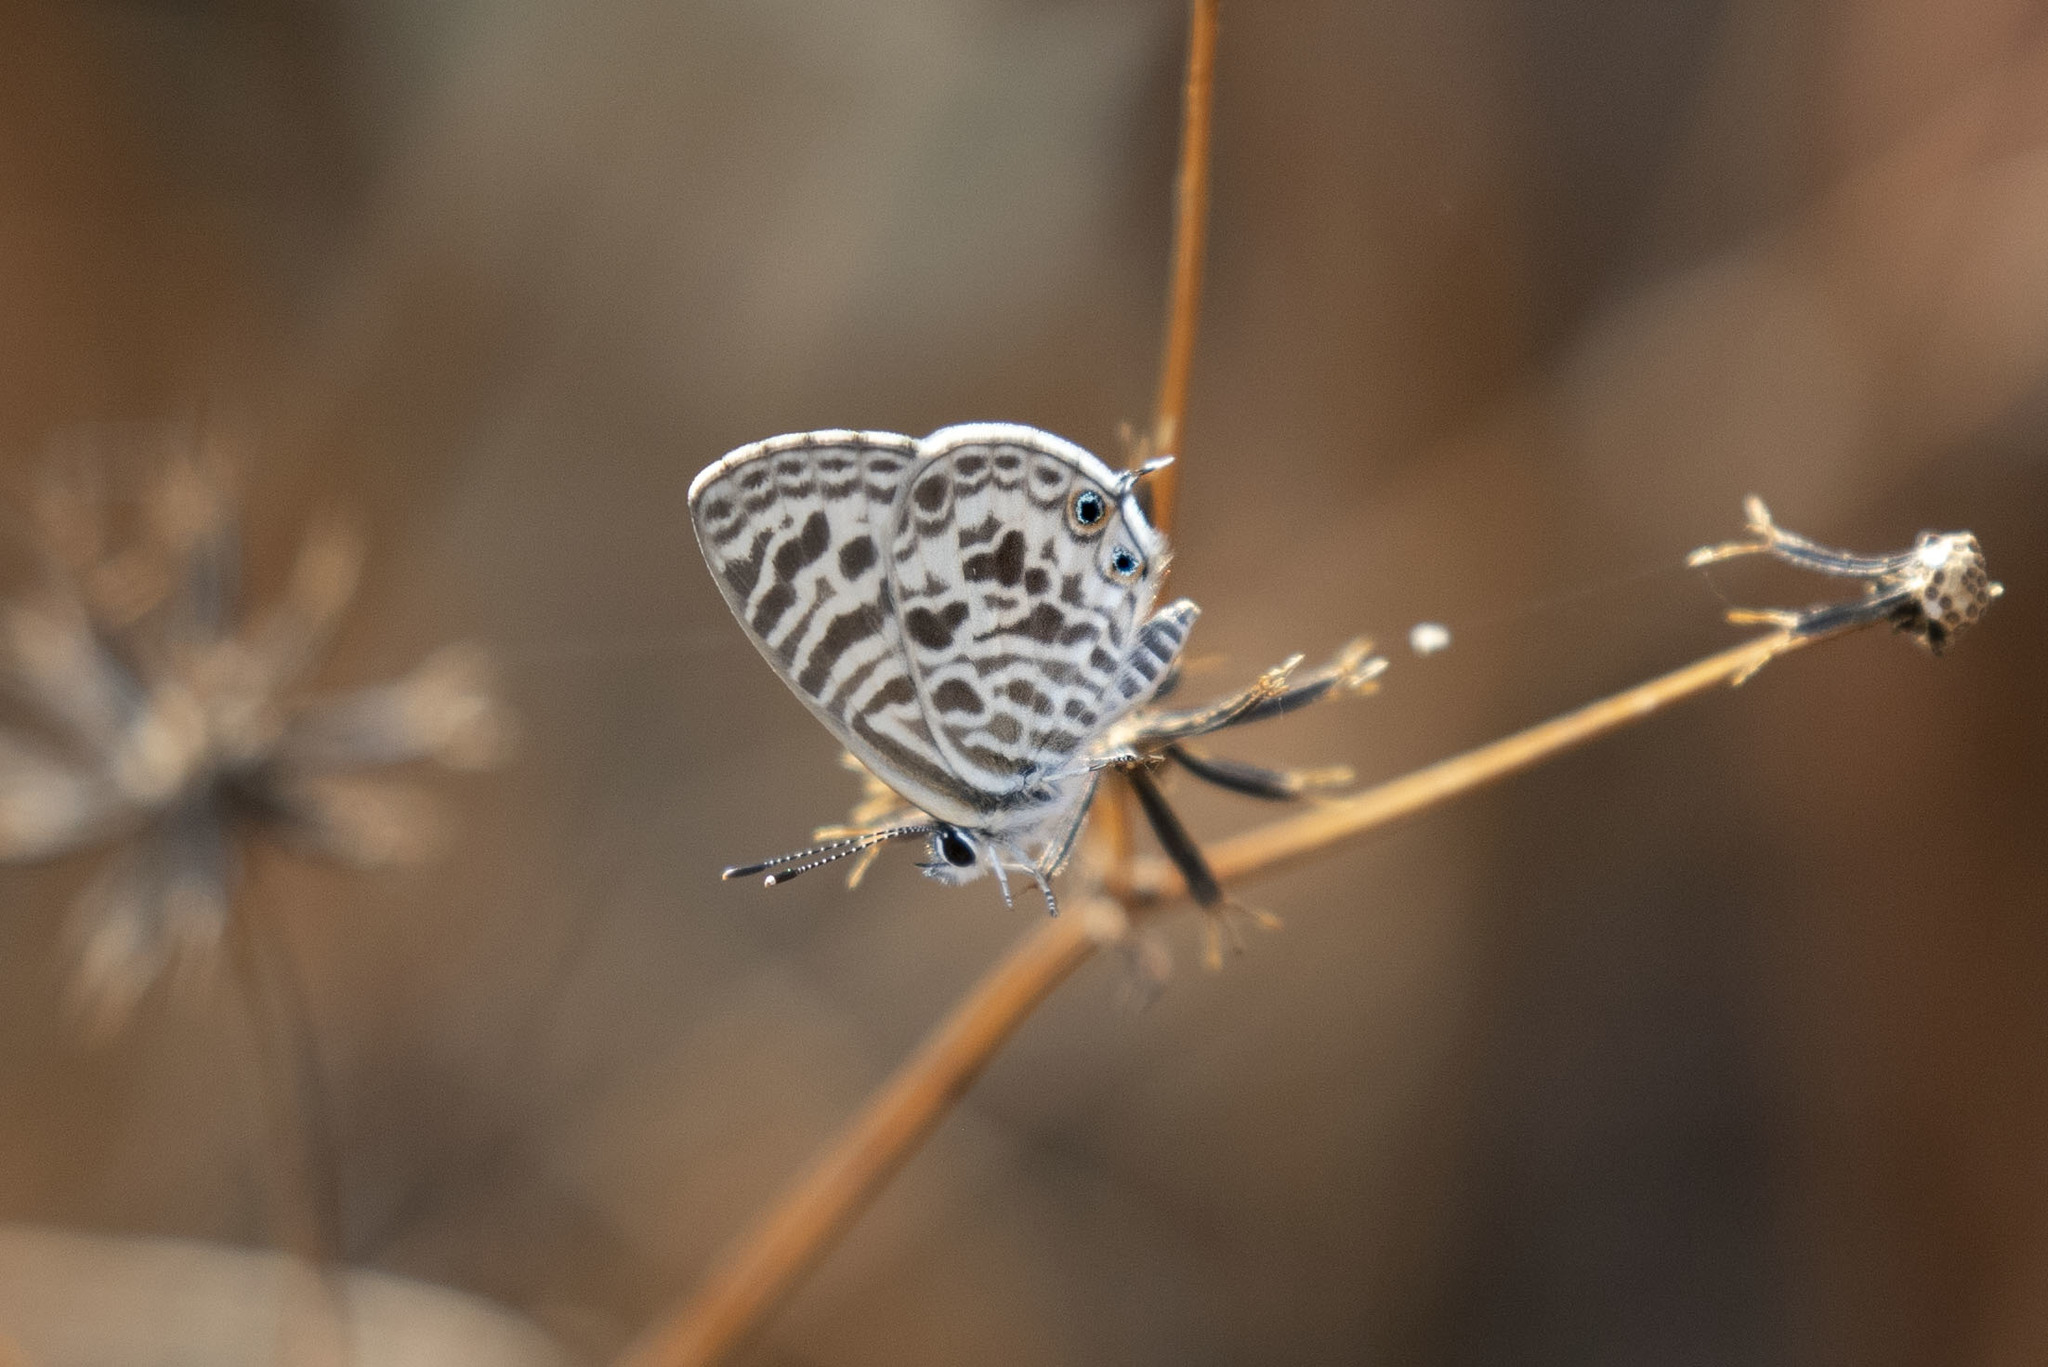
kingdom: Animalia
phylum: Arthropoda
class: Insecta
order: Lepidoptera
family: Lycaenidae
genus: Leptotes
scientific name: Leptotes plinius
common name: Zebra blue
